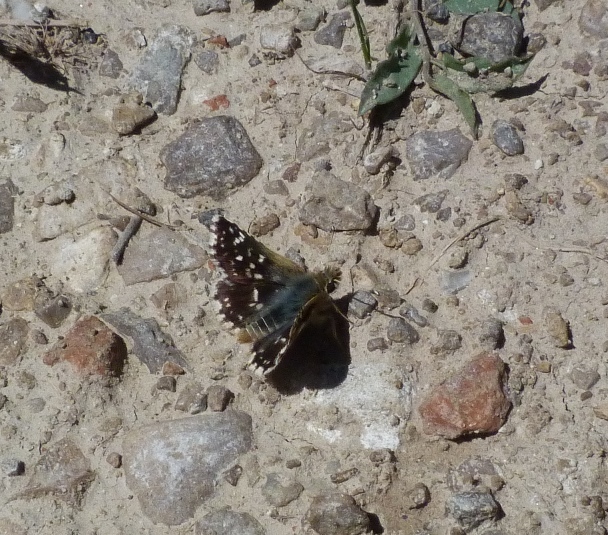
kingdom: Animalia
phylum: Arthropoda
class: Insecta
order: Lepidoptera
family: Hesperiidae
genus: Spialia
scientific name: Spialia sertorius
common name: Red underwing skipper
